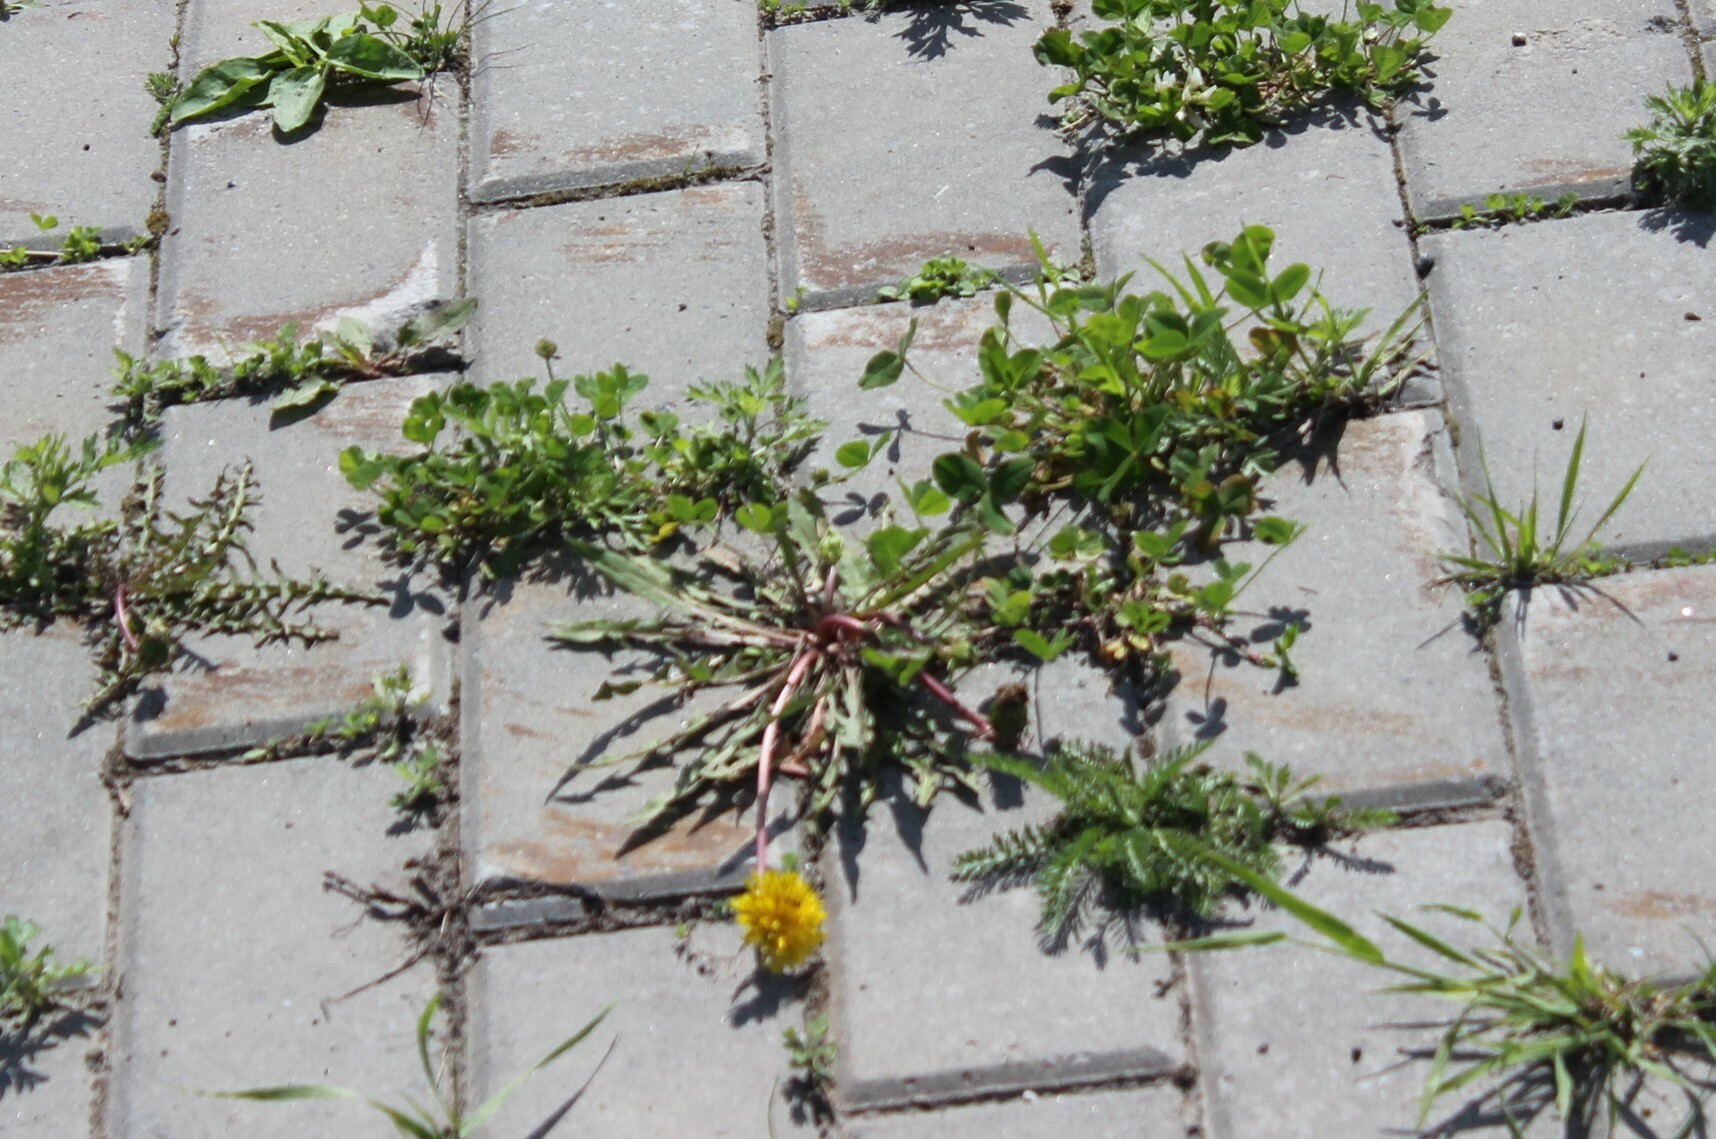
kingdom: Plantae
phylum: Tracheophyta
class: Magnoliopsida
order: Asterales
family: Asteraceae
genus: Taraxacum
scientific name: Taraxacum officinale
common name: Common dandelion
